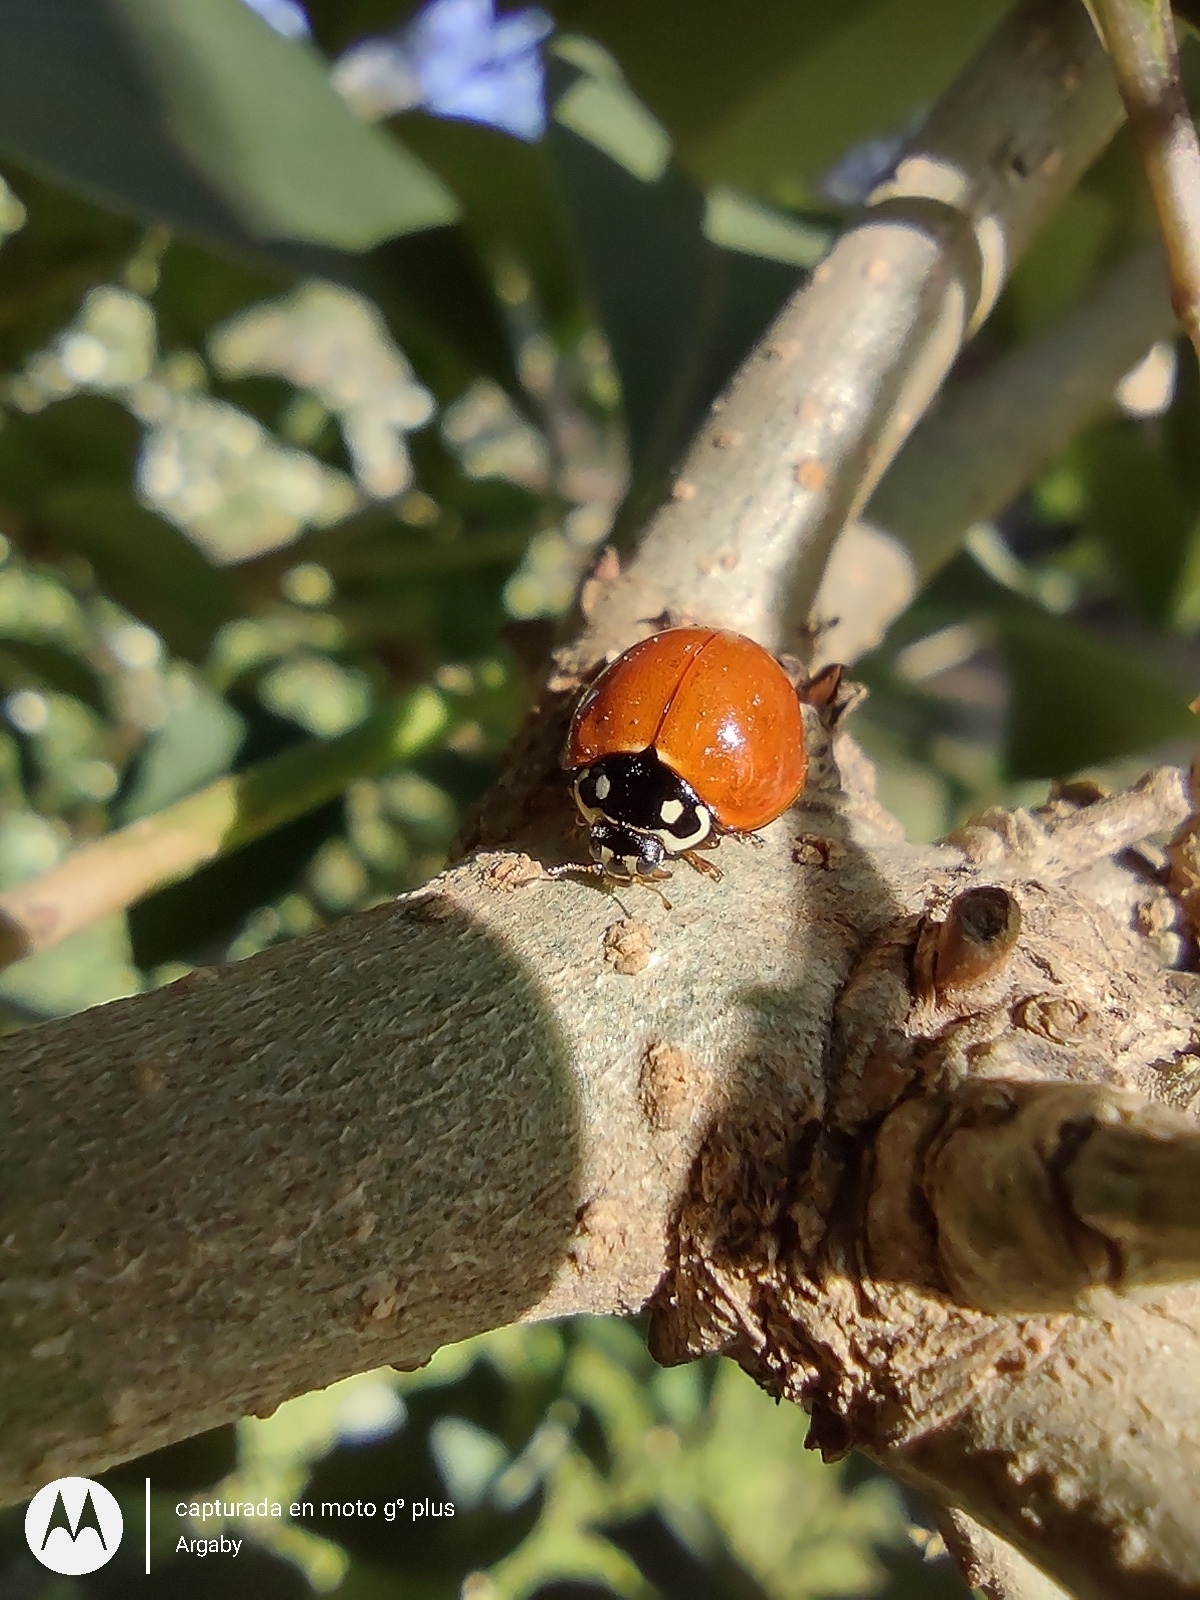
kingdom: Animalia
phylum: Arthropoda
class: Insecta
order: Coleoptera
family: Coccinellidae
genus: Cycloneda
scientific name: Cycloneda sanguinea
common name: Ladybird beetle
